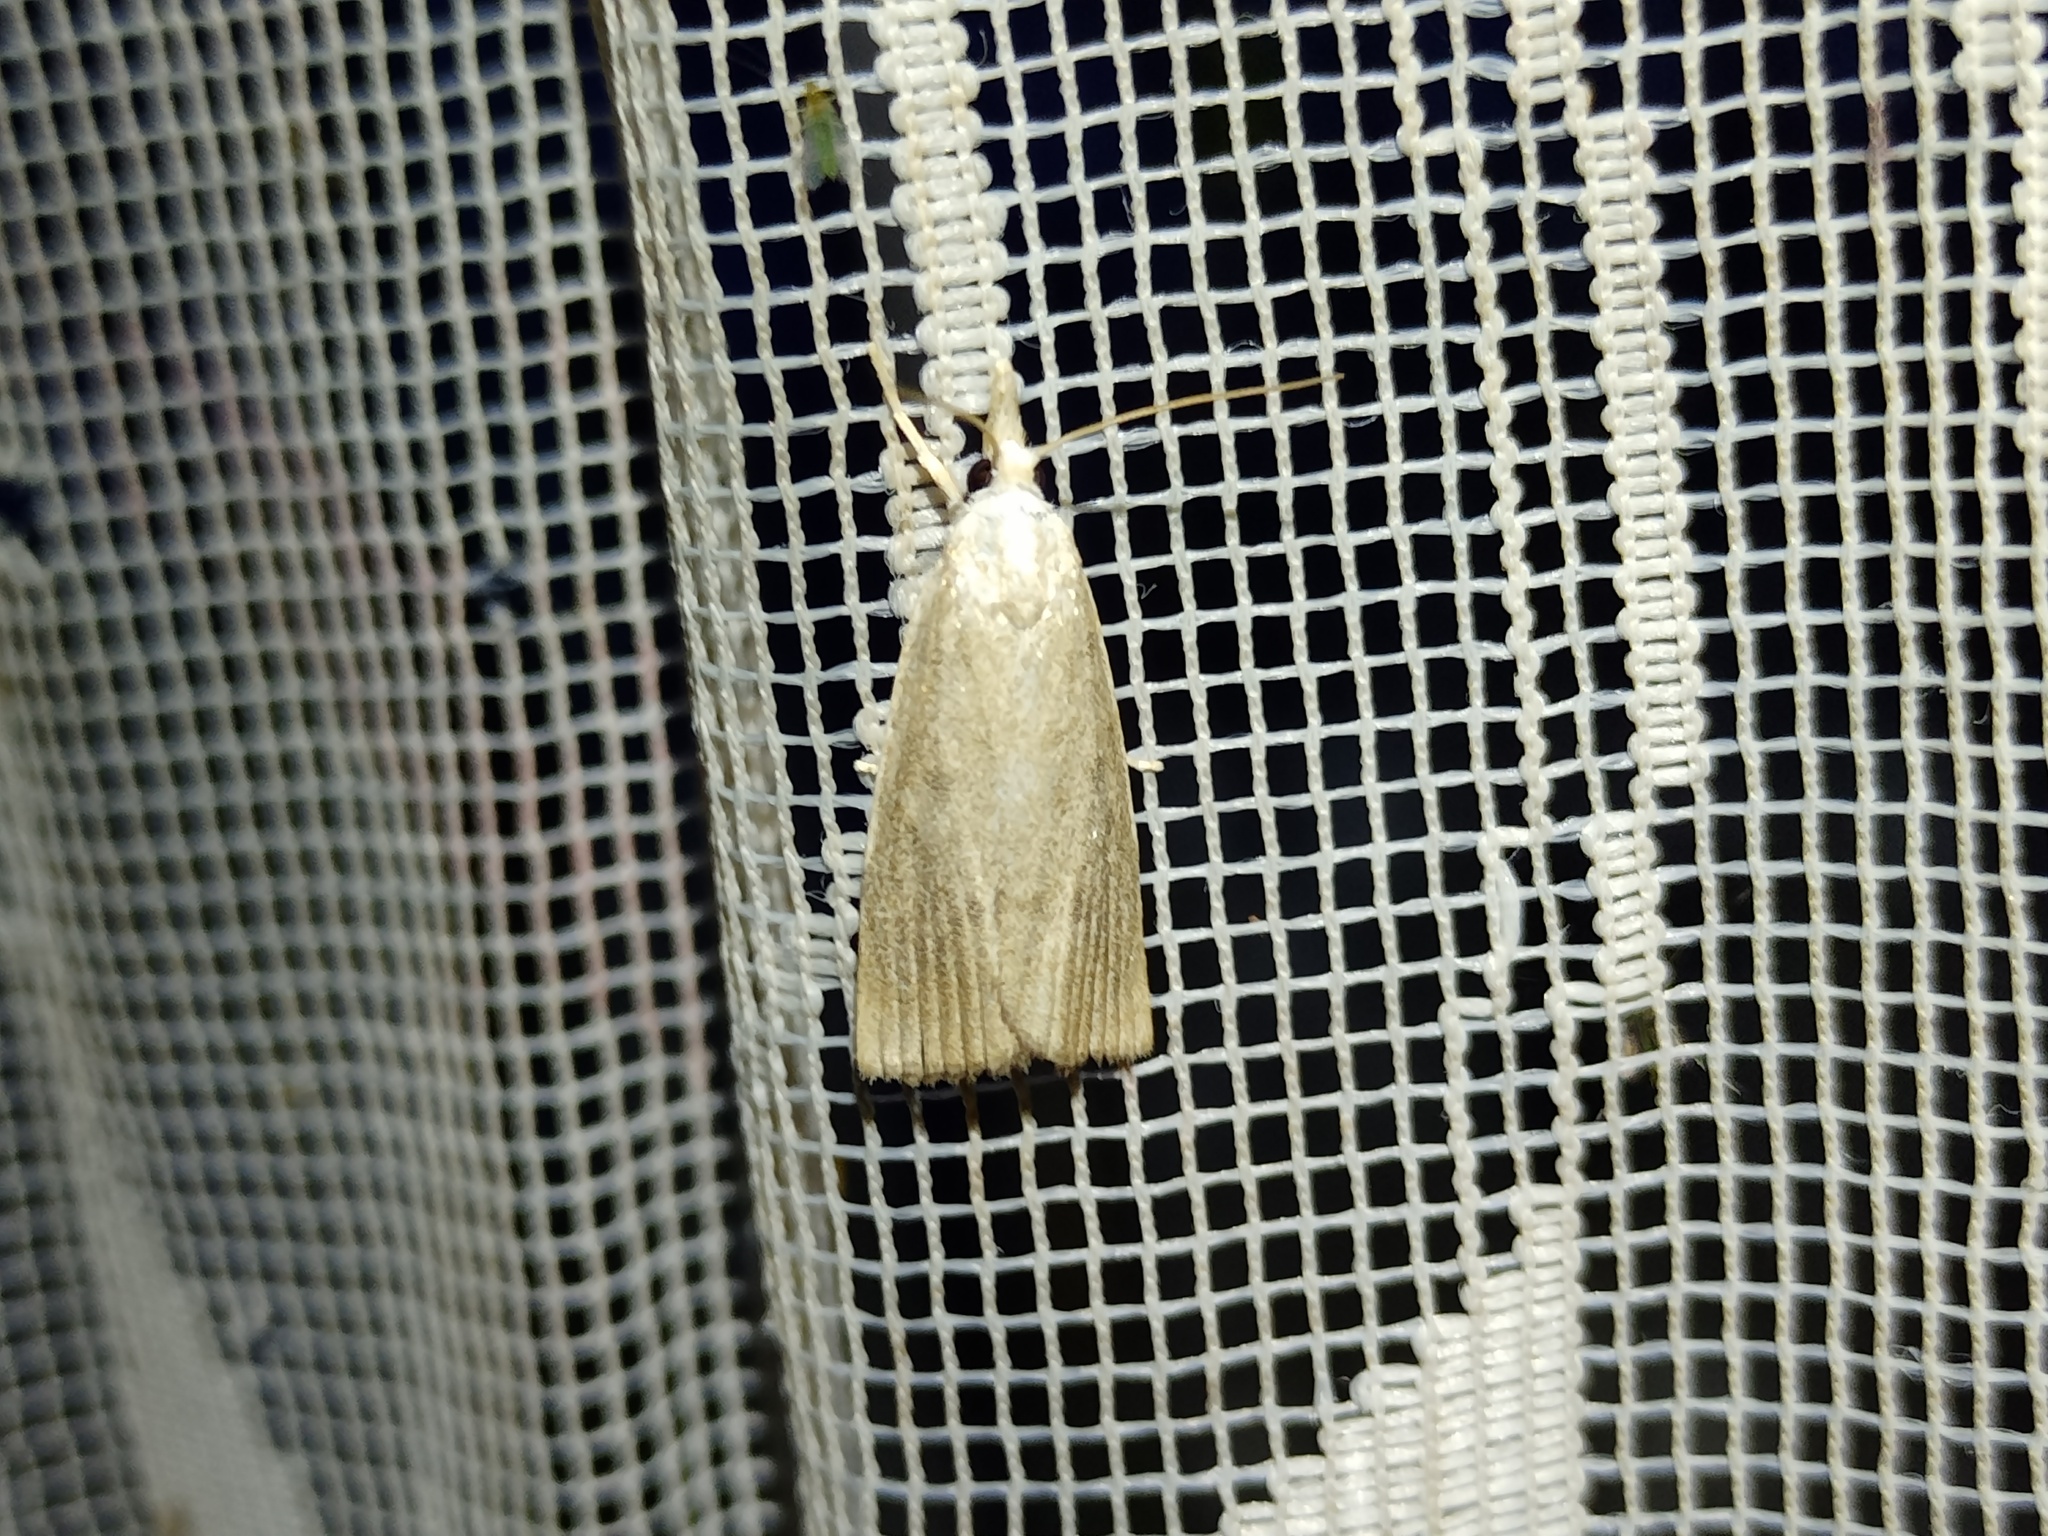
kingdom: Animalia
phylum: Arthropoda
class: Insecta
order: Lepidoptera
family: Crambidae
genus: Calamotropha
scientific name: Calamotropha paludella
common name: Bulrush veneer
